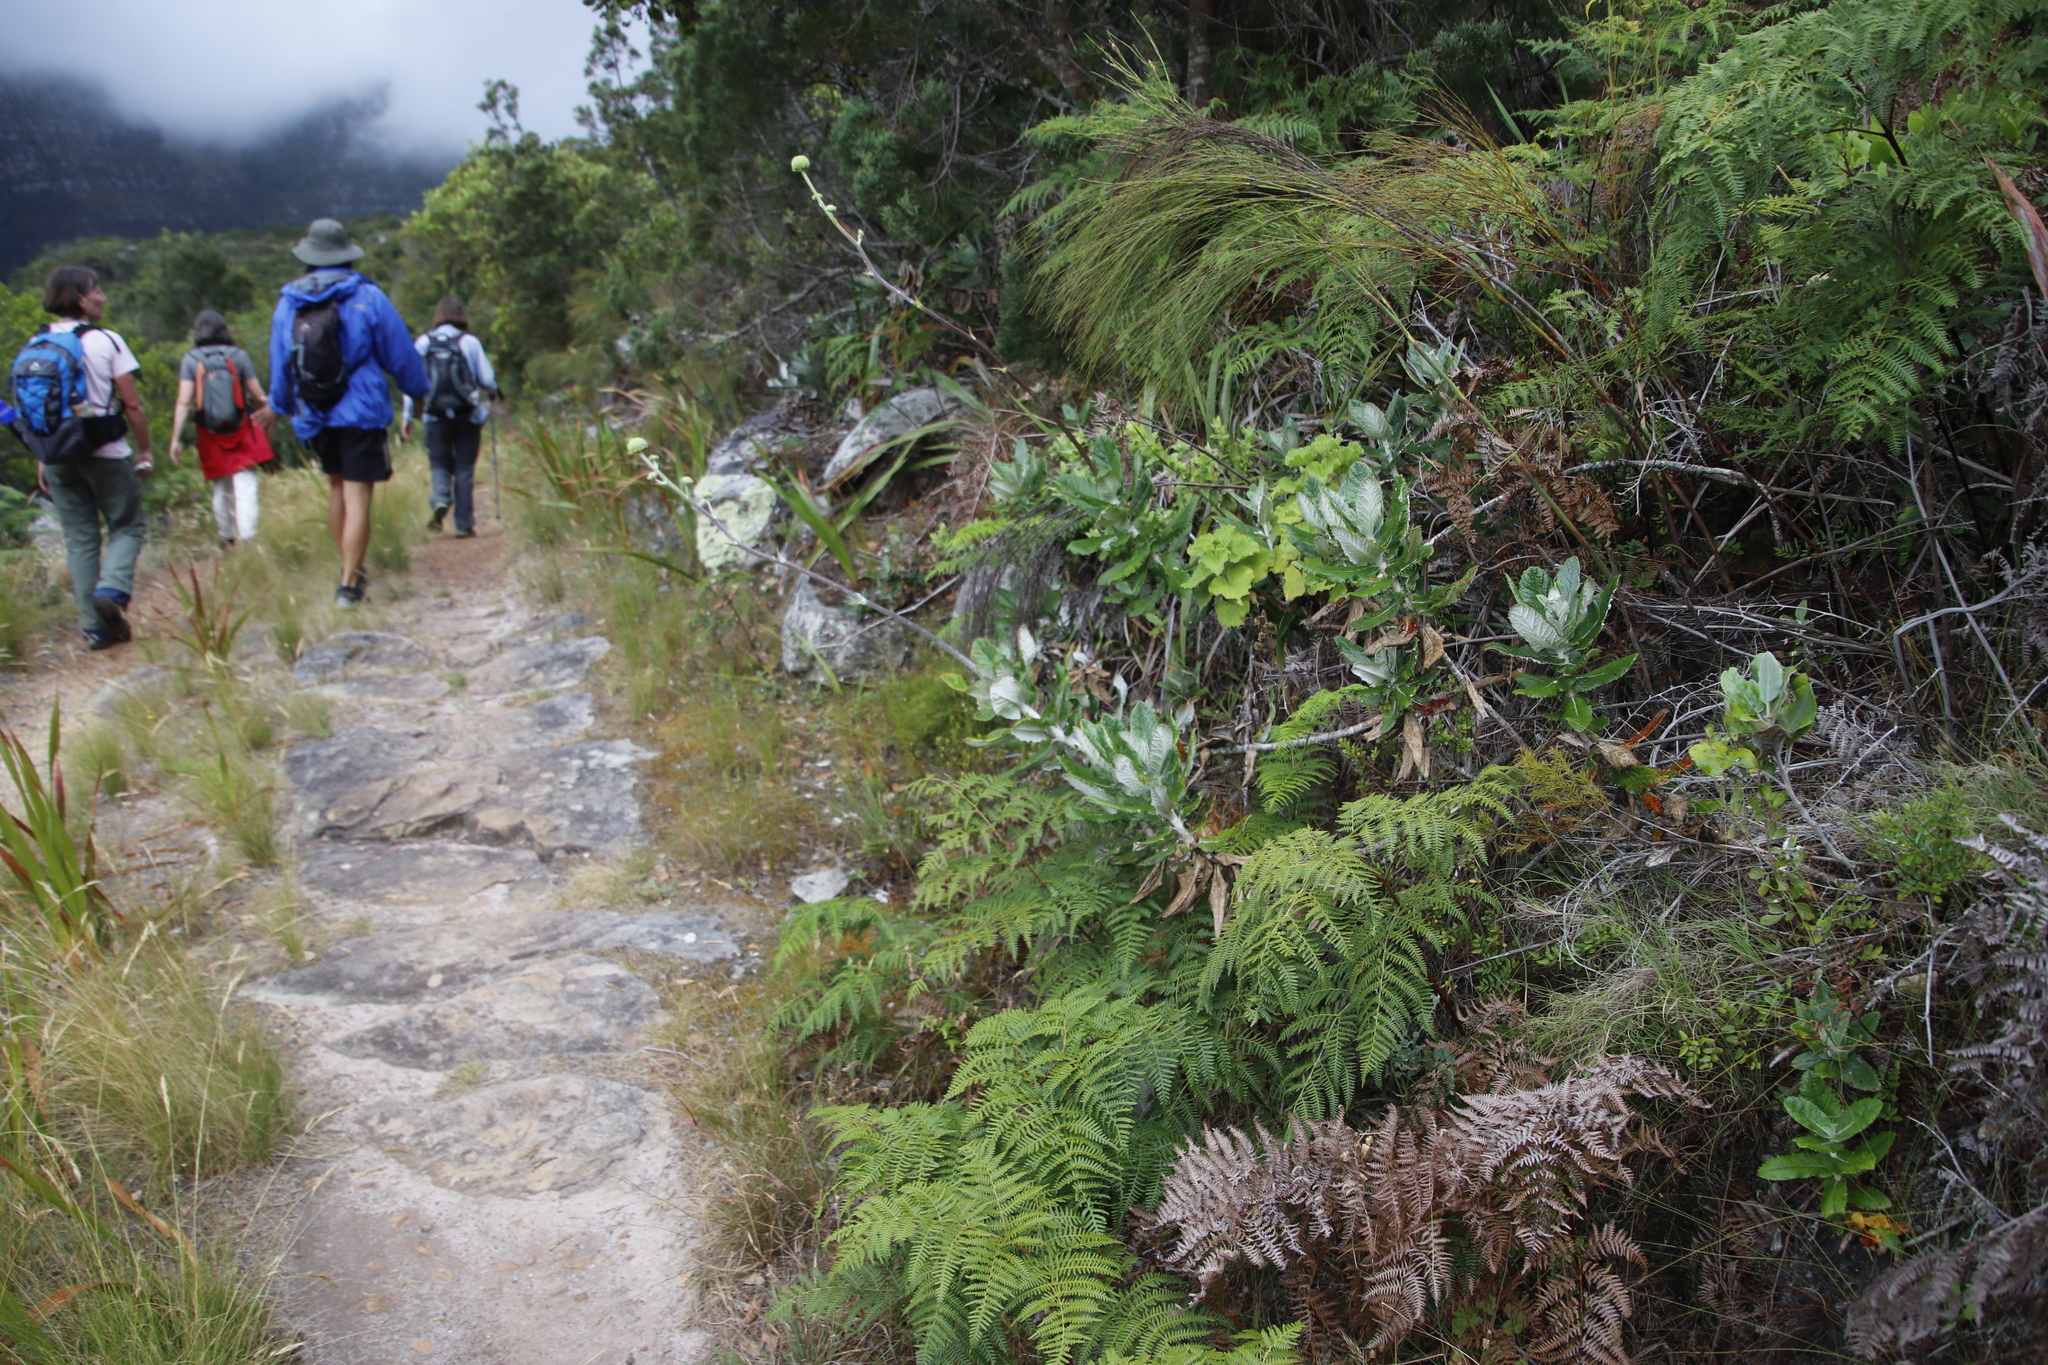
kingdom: Plantae
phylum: Tracheophyta
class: Magnoliopsida
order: Apiales
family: Apiaceae
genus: Hermas
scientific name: Hermas villosa
